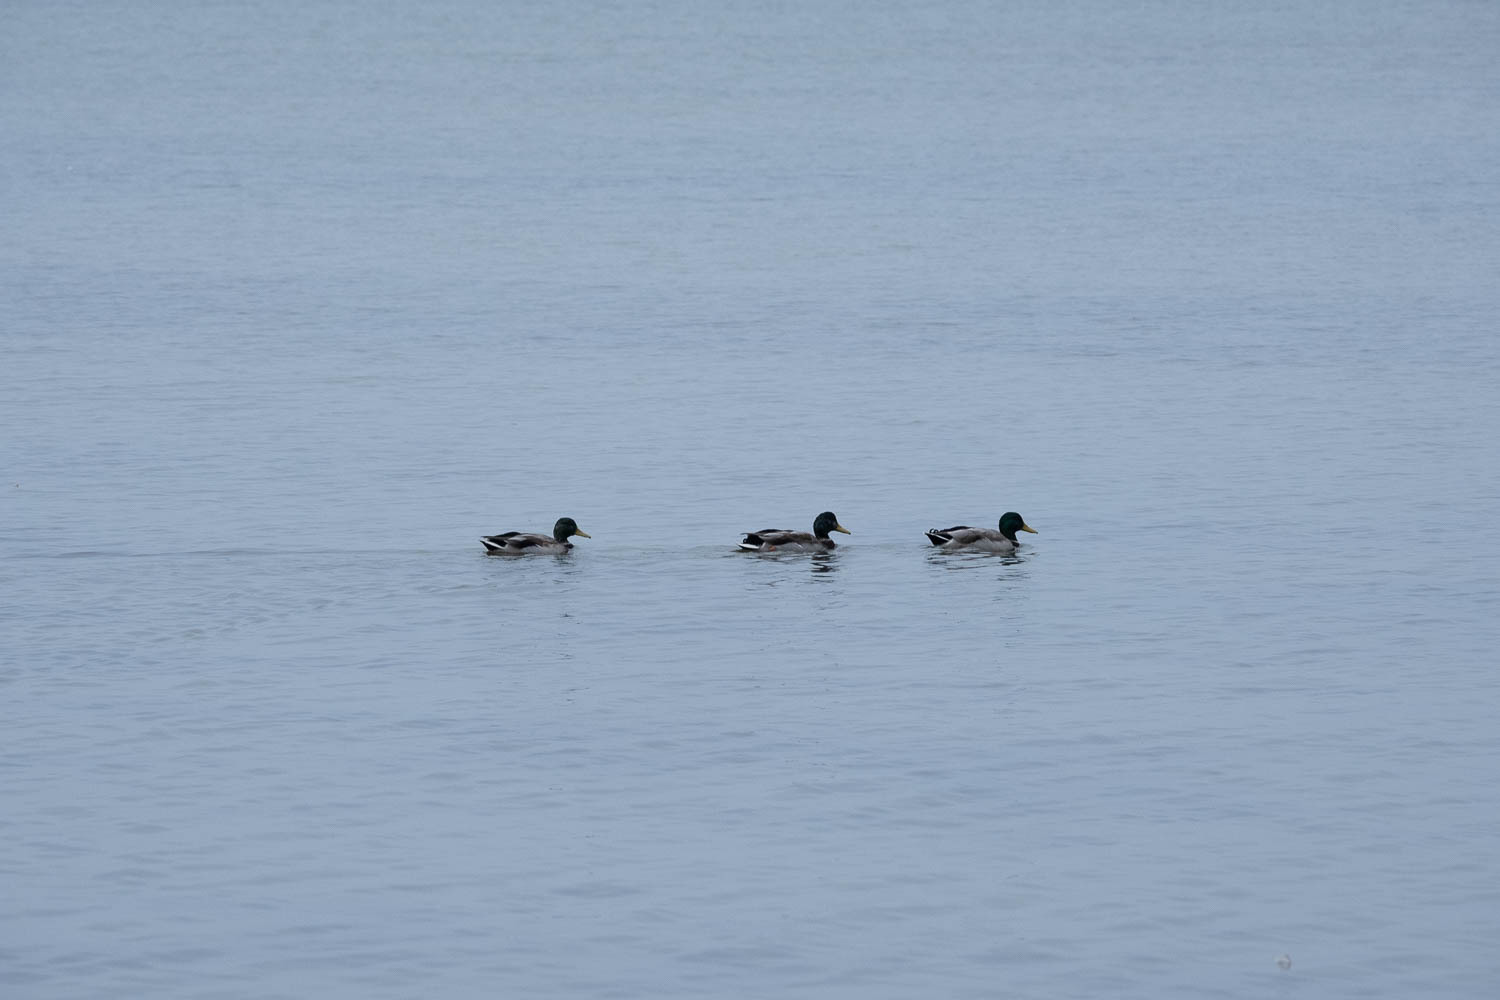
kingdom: Animalia
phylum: Chordata
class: Aves
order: Anseriformes
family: Anatidae
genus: Anas
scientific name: Anas platyrhynchos
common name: Mallard
